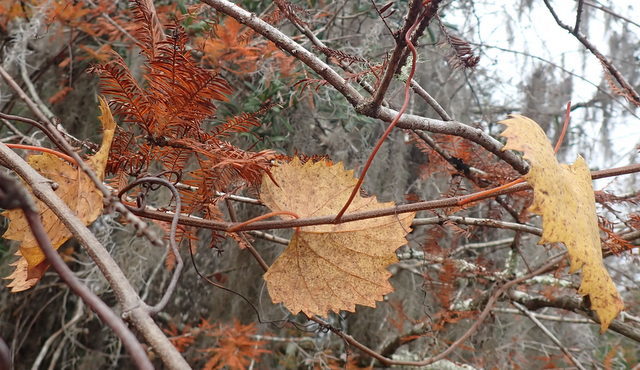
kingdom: Plantae
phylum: Tracheophyta
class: Magnoliopsida
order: Vitales
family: Vitaceae
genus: Vitis
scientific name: Vitis rotundifolia
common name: Muscadine grape
